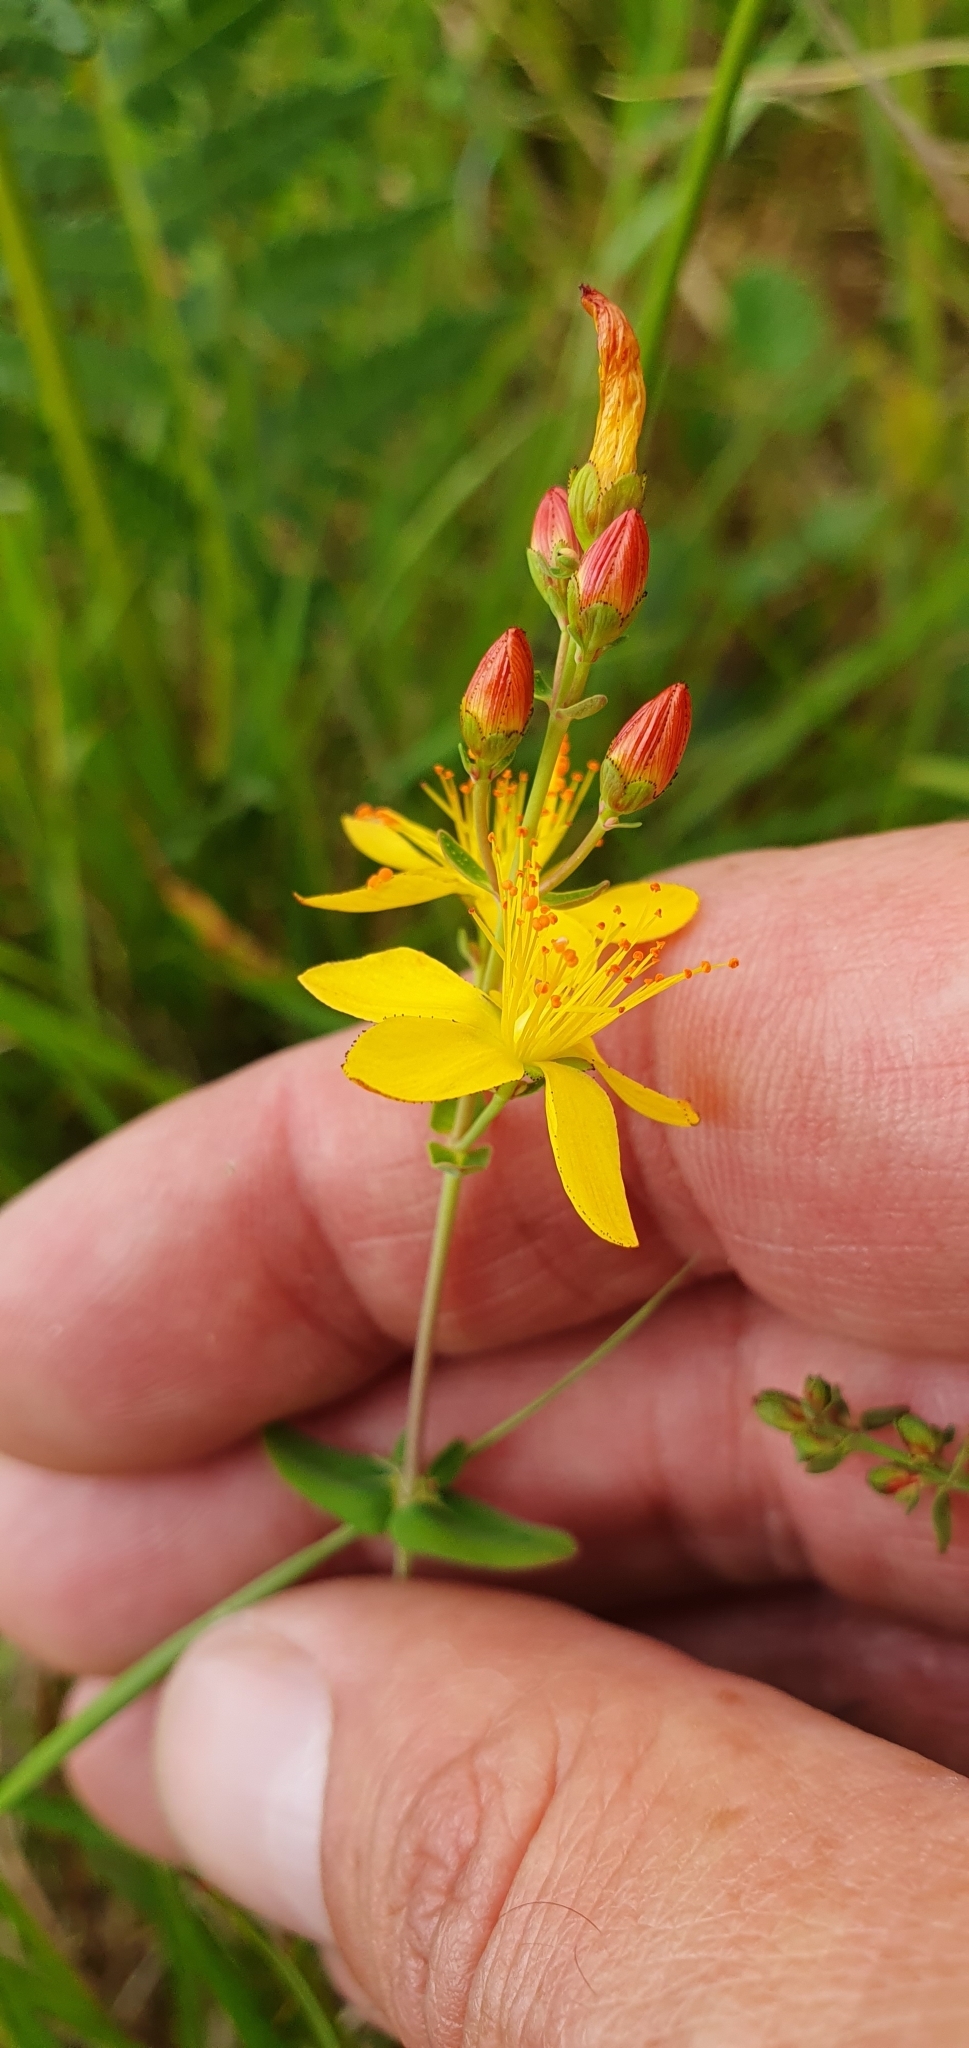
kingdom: Plantae
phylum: Tracheophyta
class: Magnoliopsida
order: Malpighiales
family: Hypericaceae
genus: Hypericum
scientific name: Hypericum pulchrum
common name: Slender st. john's-wort
